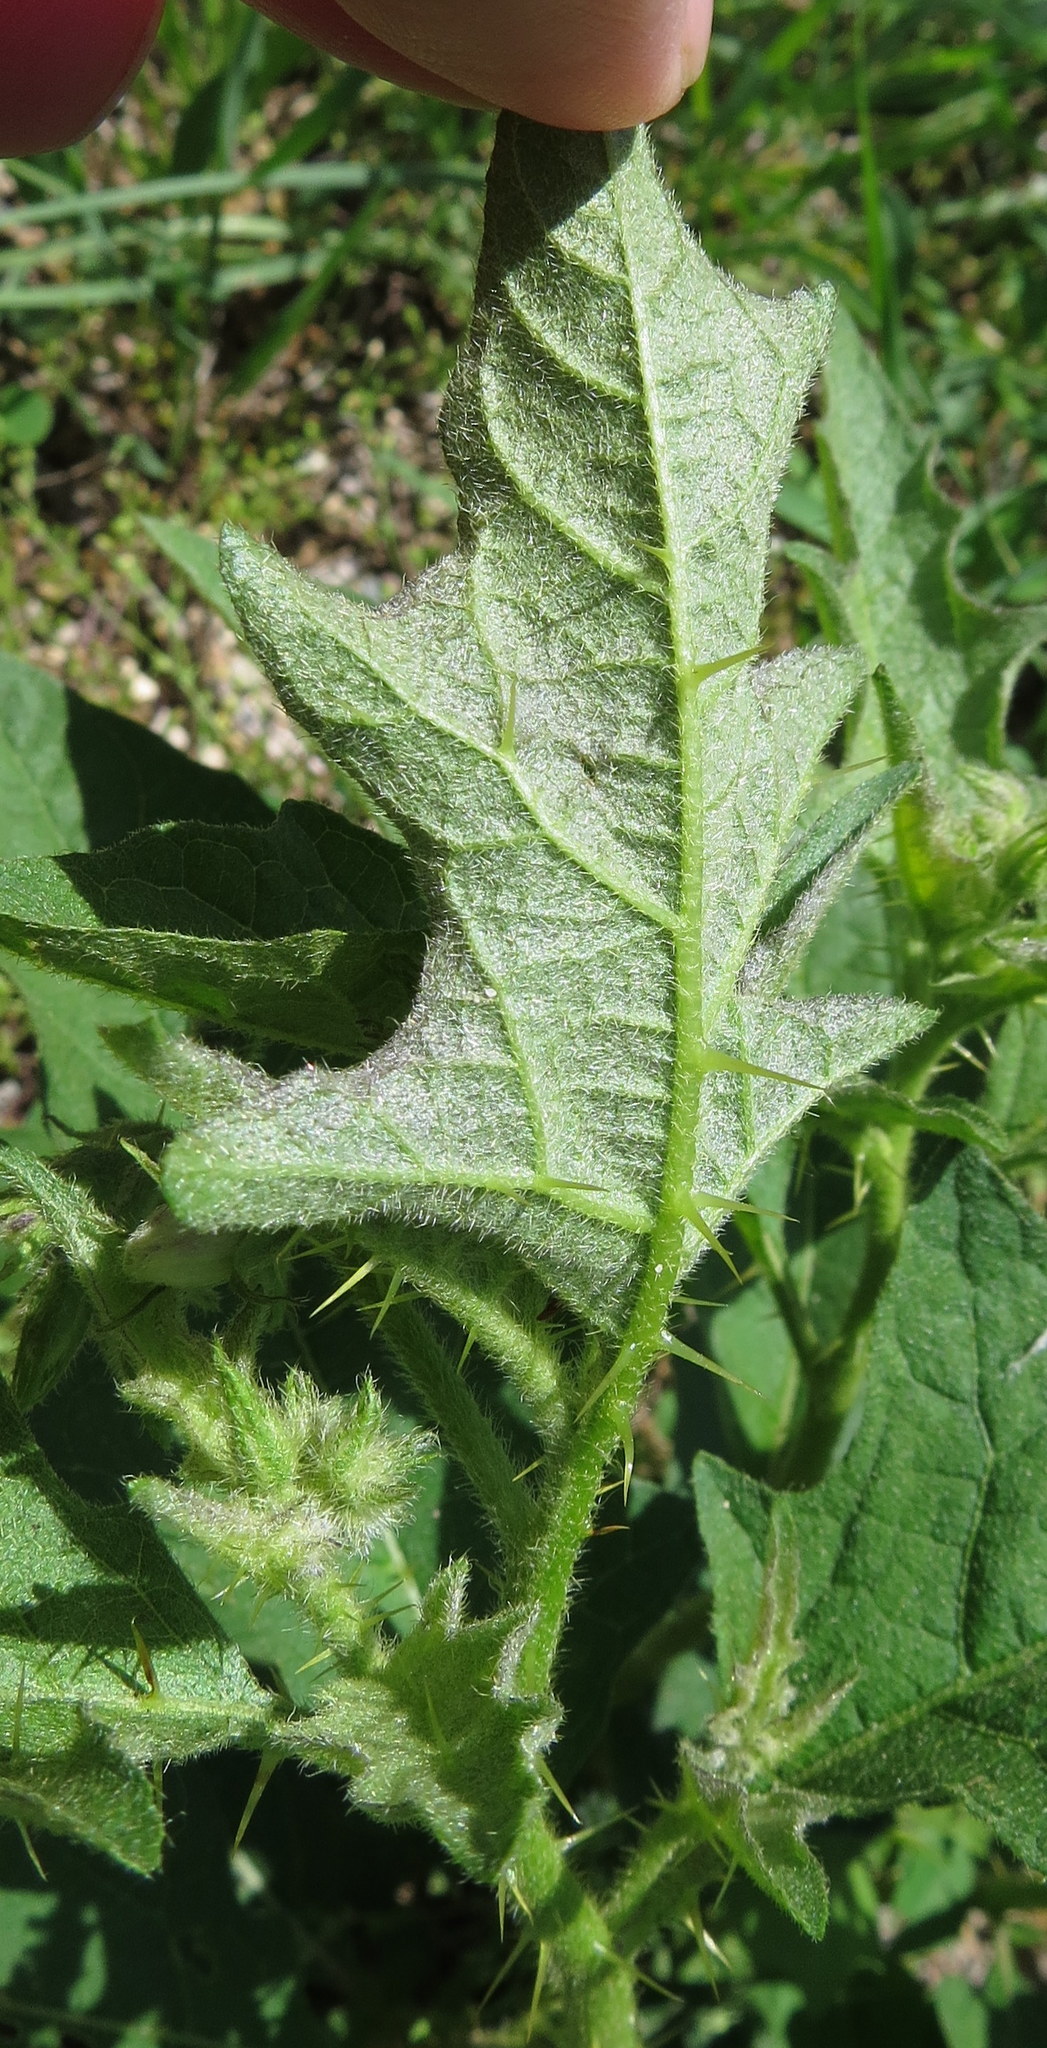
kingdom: Plantae
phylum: Tracheophyta
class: Magnoliopsida
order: Solanales
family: Solanaceae
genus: Solanum
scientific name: Solanum carolinense
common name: Horse-nettle
